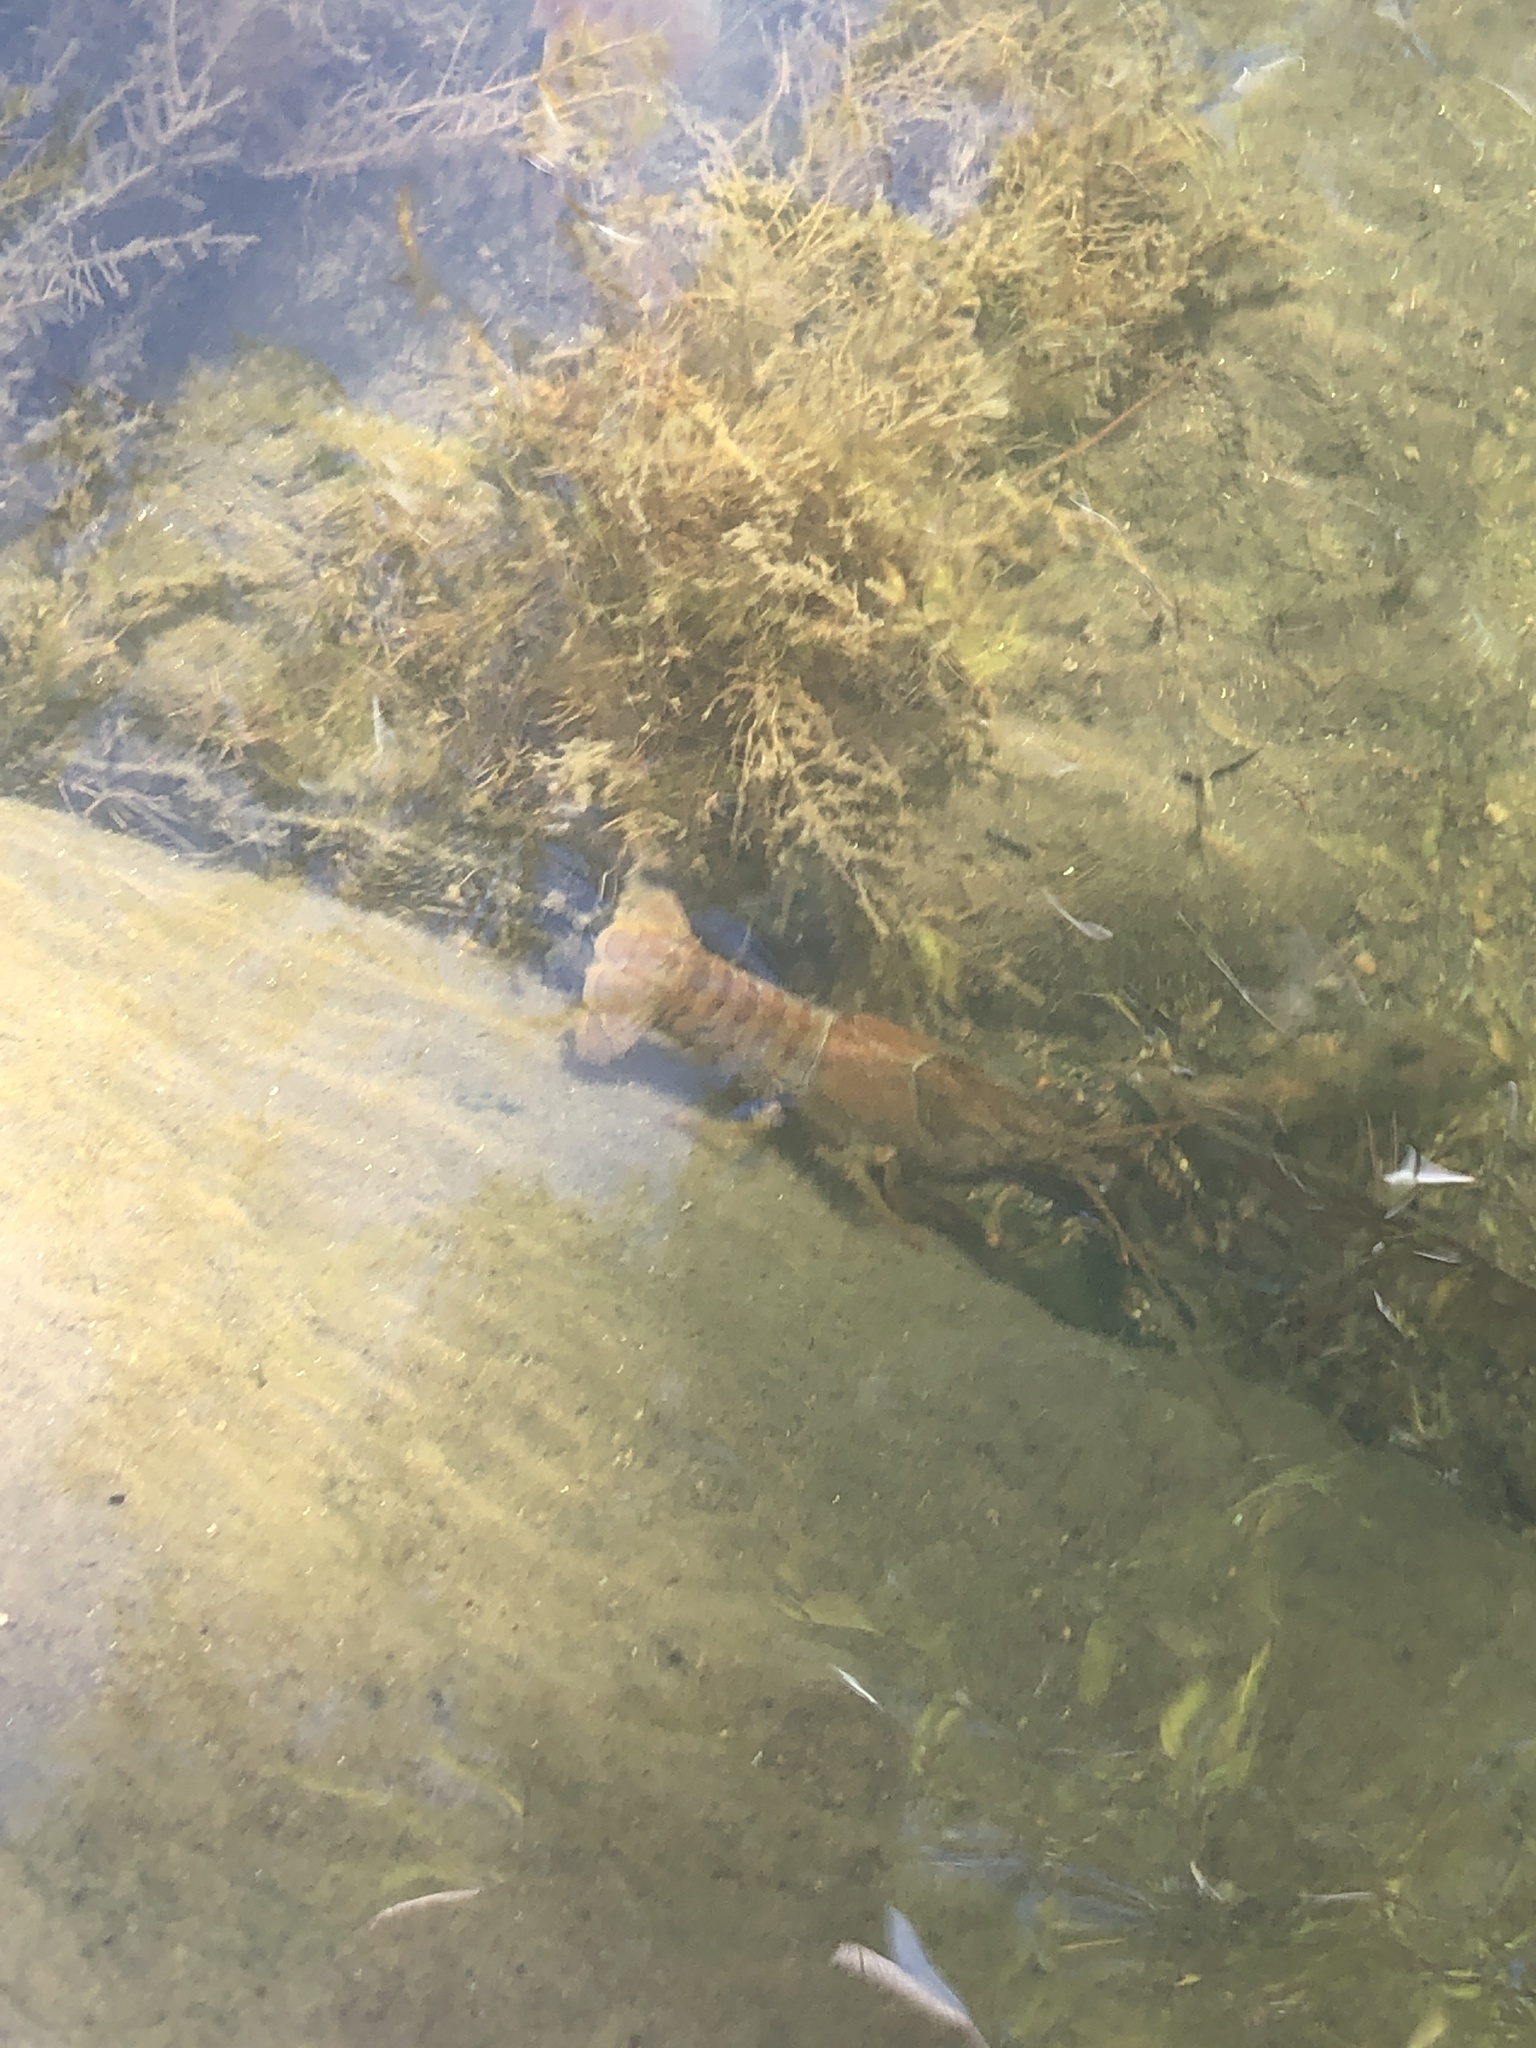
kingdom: Animalia
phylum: Arthropoda
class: Malacostraca
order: Decapoda
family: Cambaridae
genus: Faxonius
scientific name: Faxonius virilis
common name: Virile crayfish
